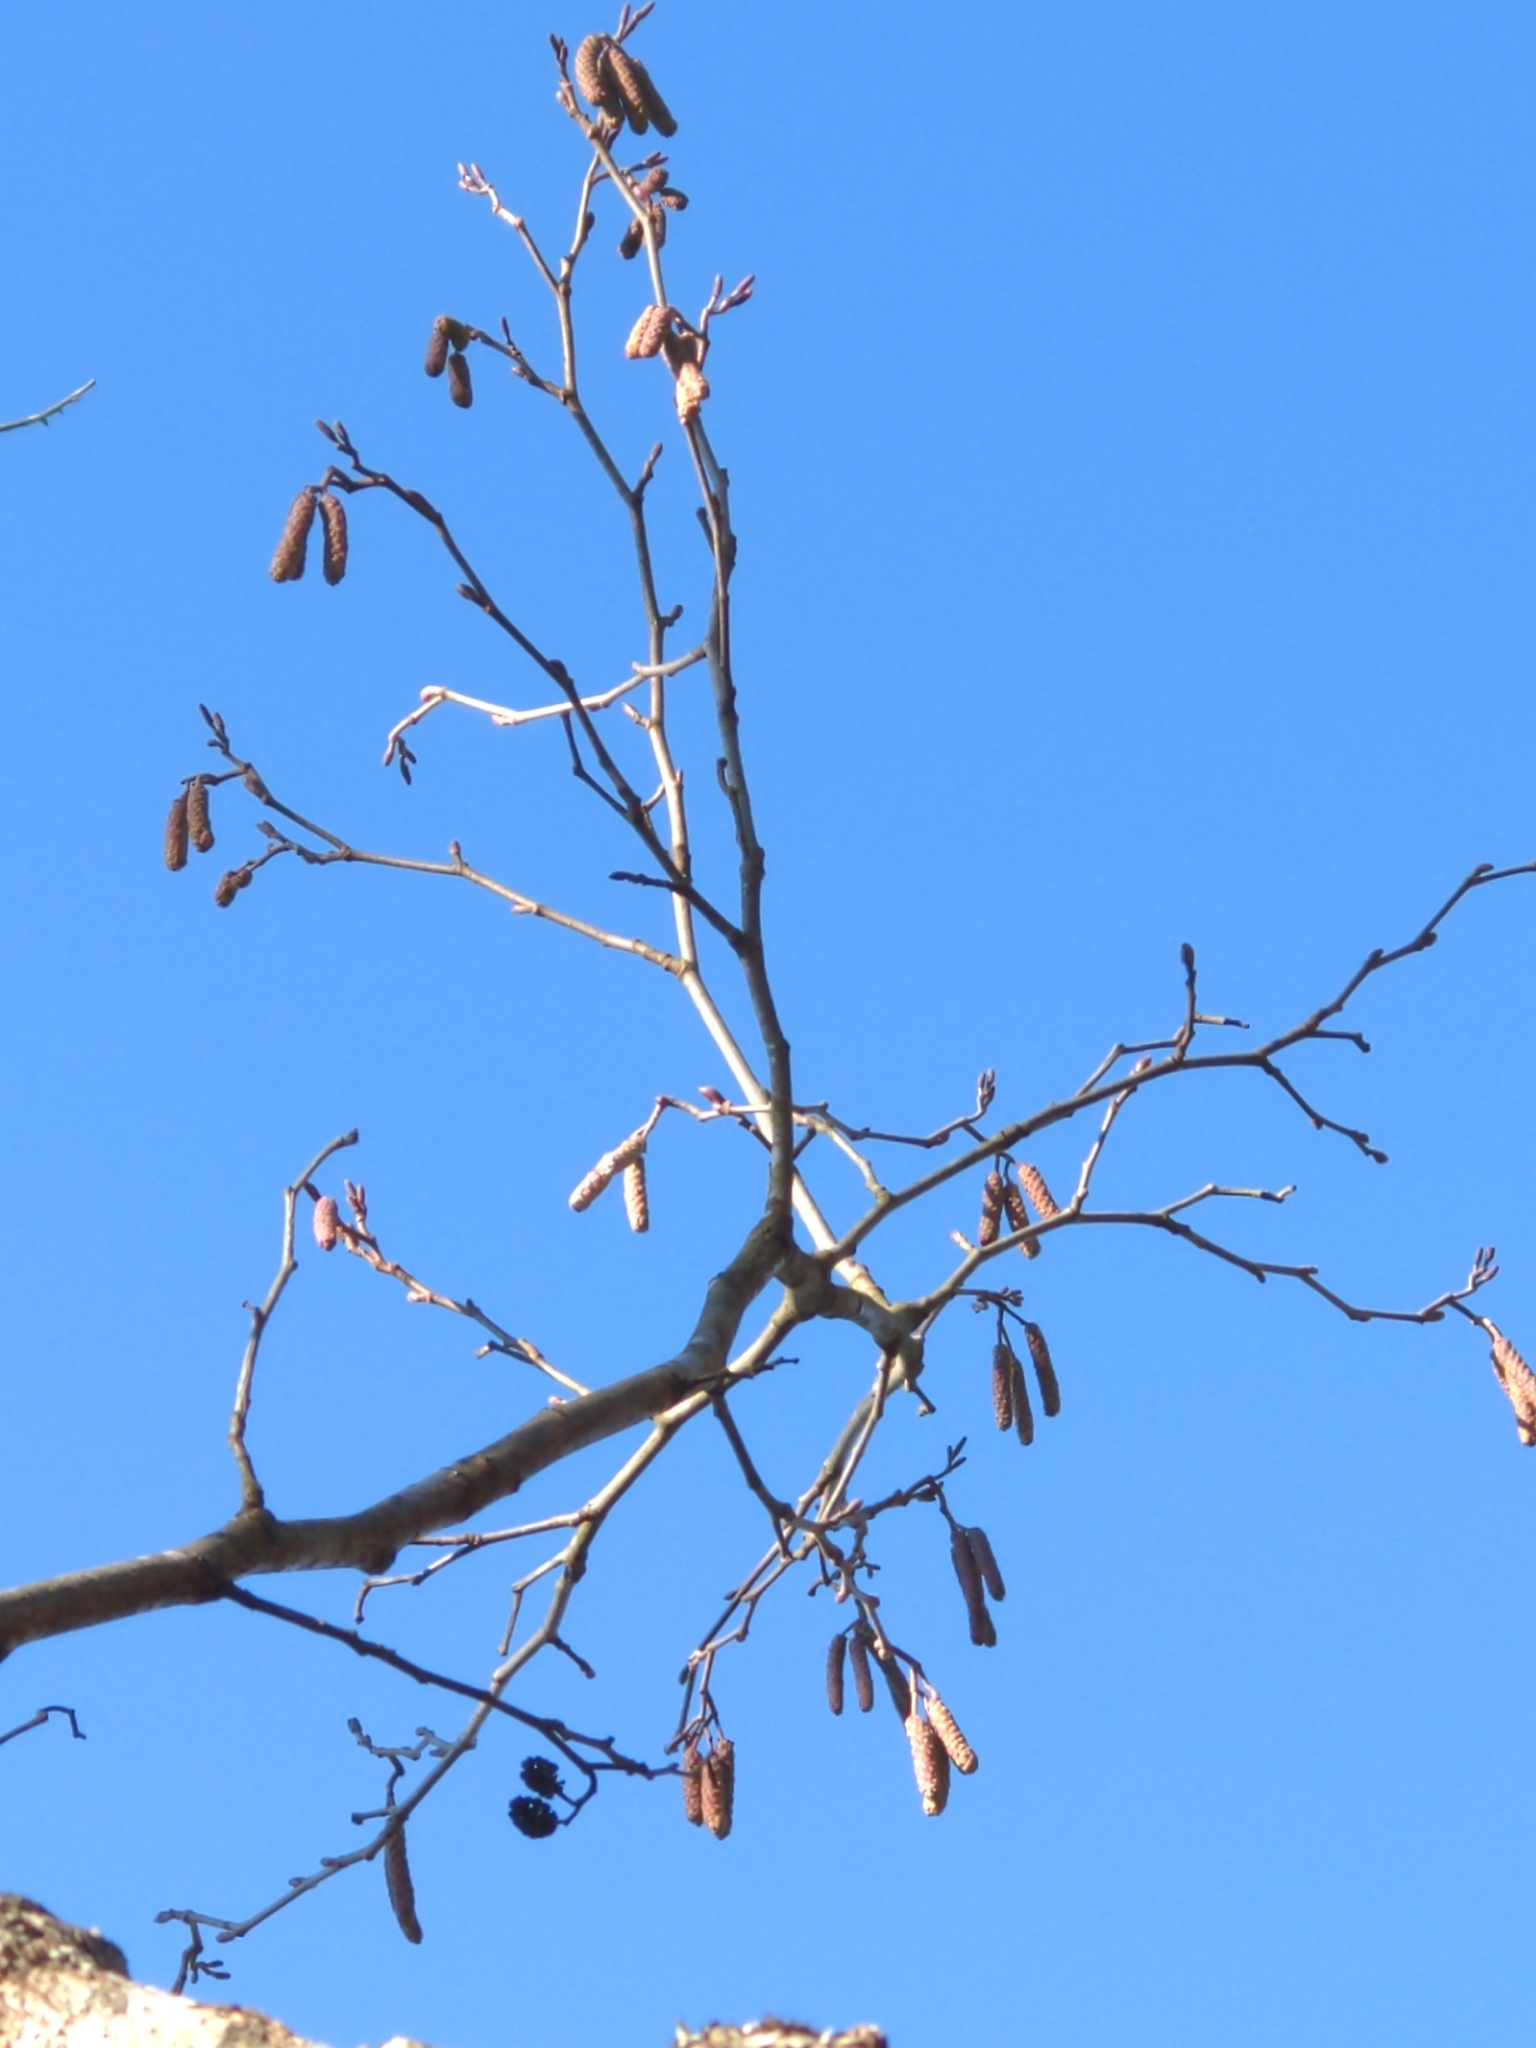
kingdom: Plantae
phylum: Tracheophyta
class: Magnoliopsida
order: Fagales
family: Betulaceae
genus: Alnus
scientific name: Alnus serrulata
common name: Hazel alder
